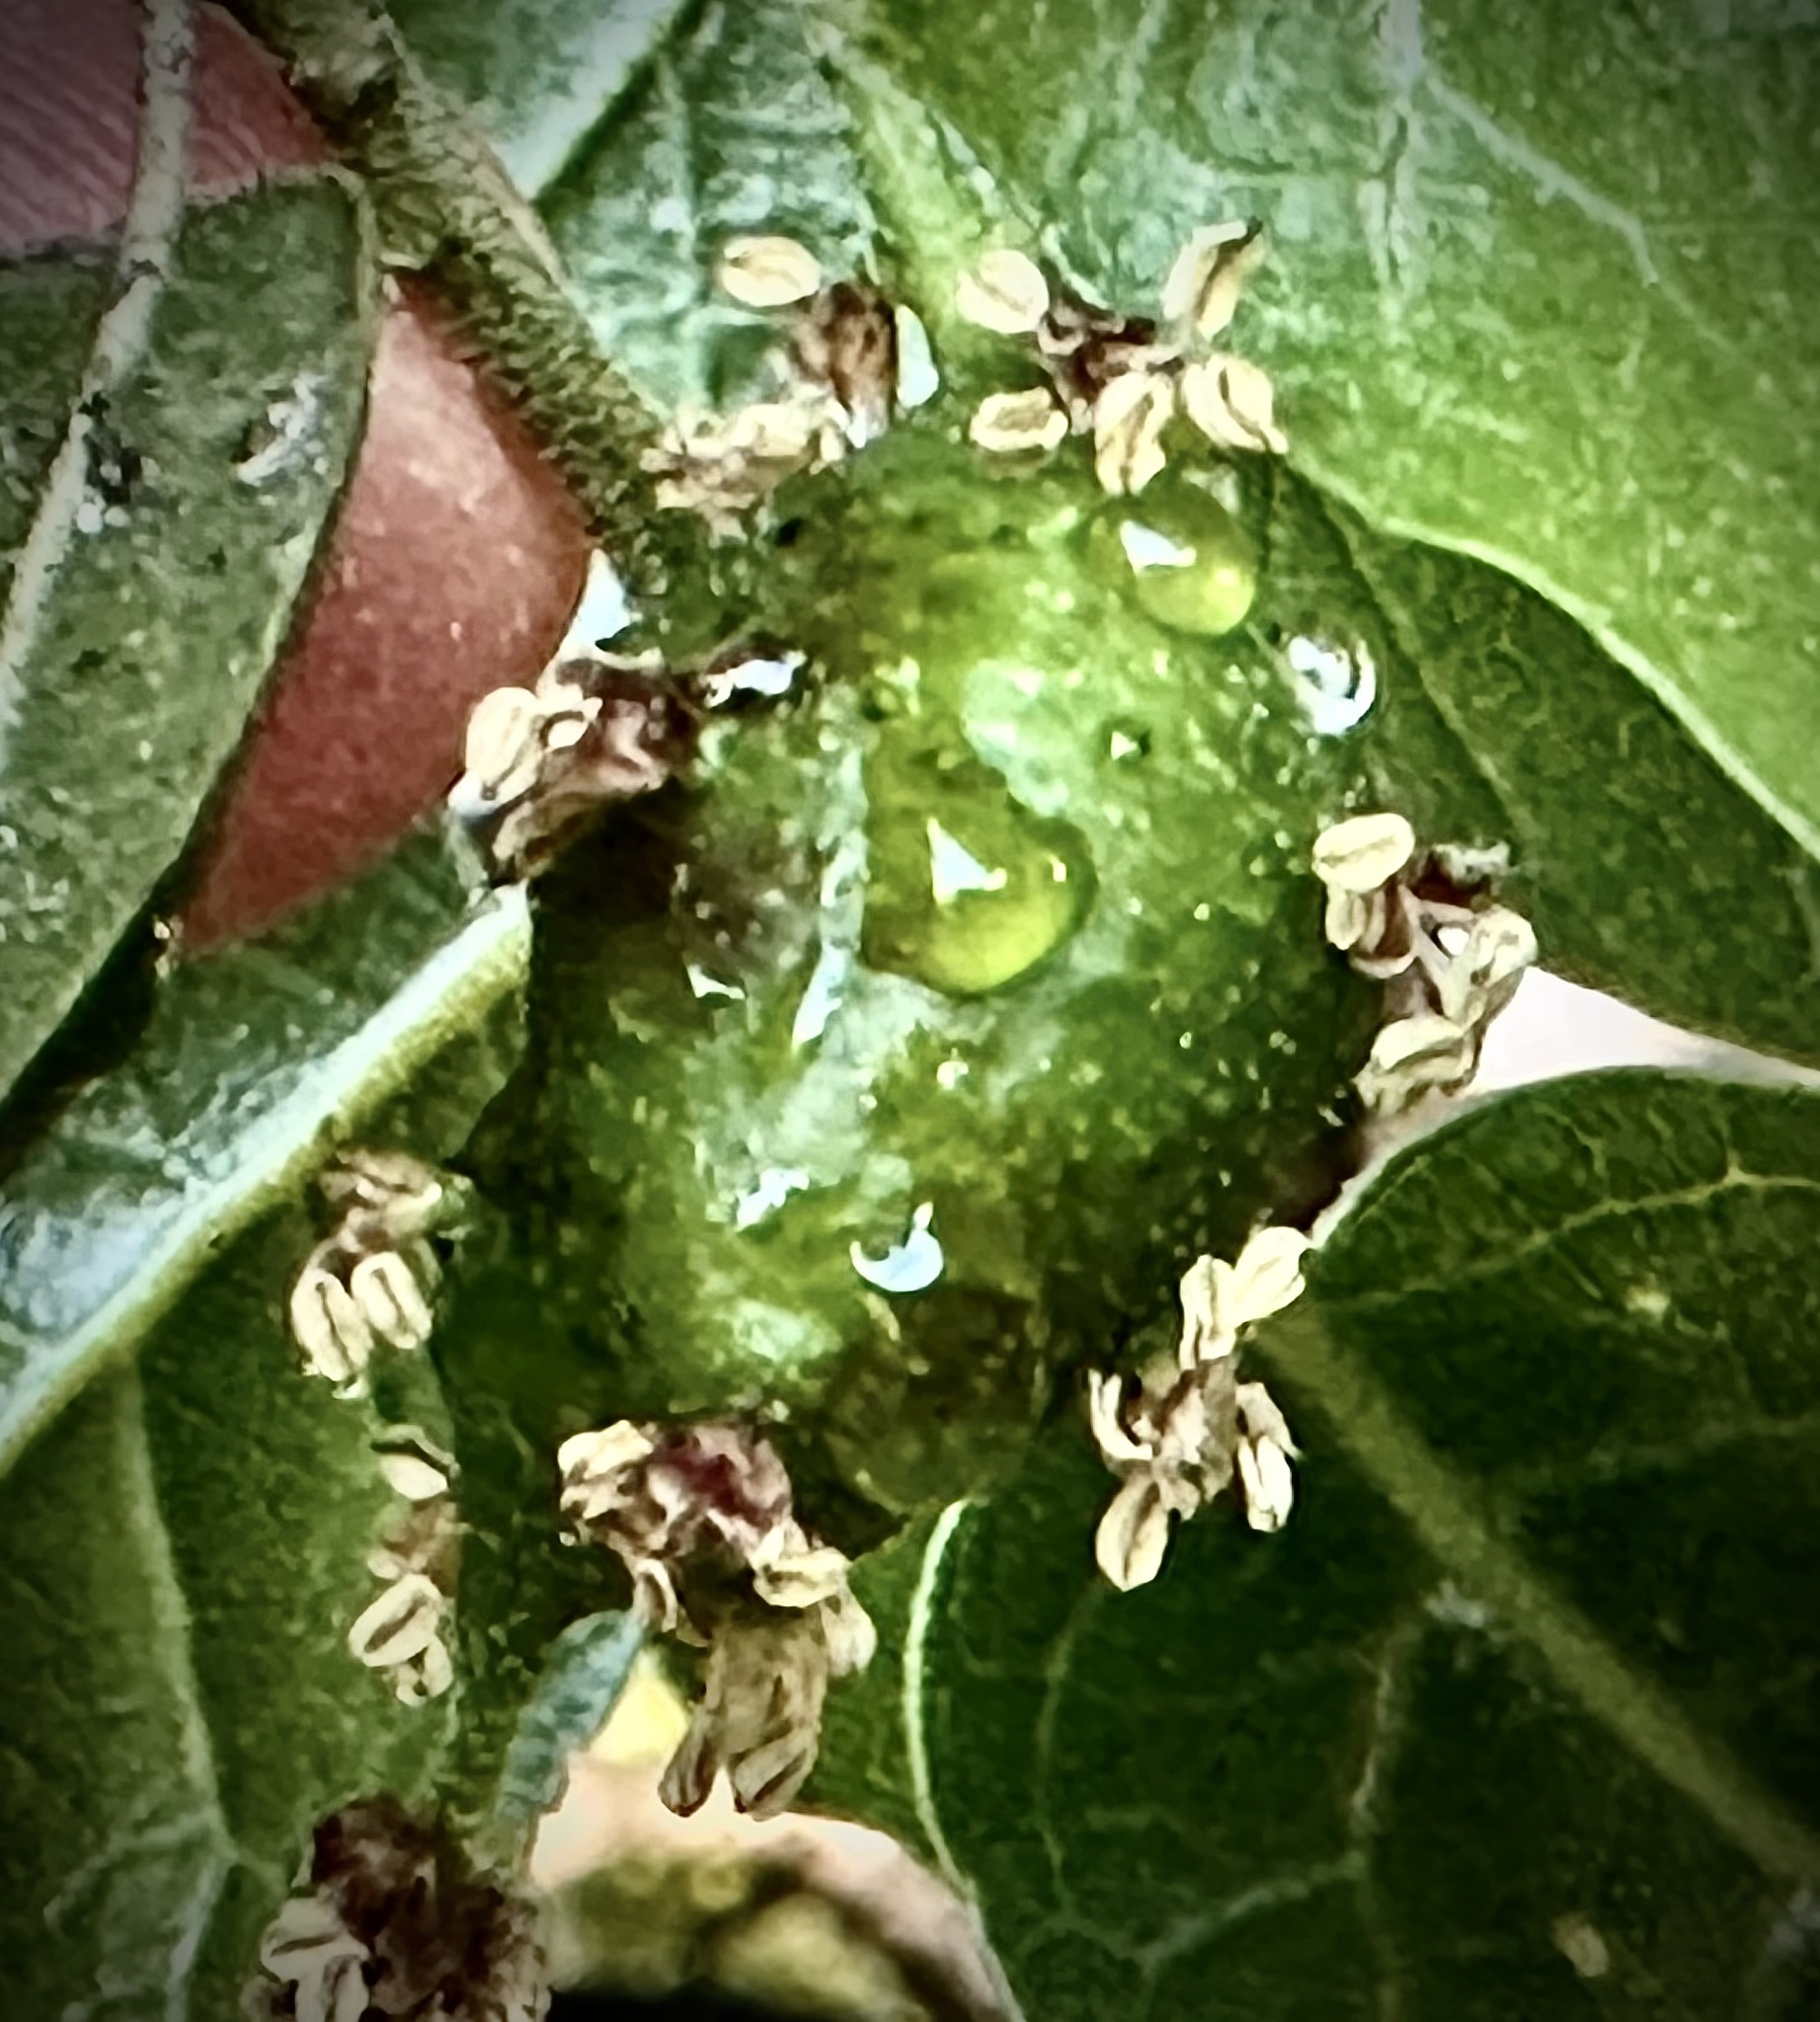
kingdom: Animalia
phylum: Arthropoda
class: Insecta
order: Hymenoptera
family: Cynipidae
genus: Callirhytis
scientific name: Callirhytis
